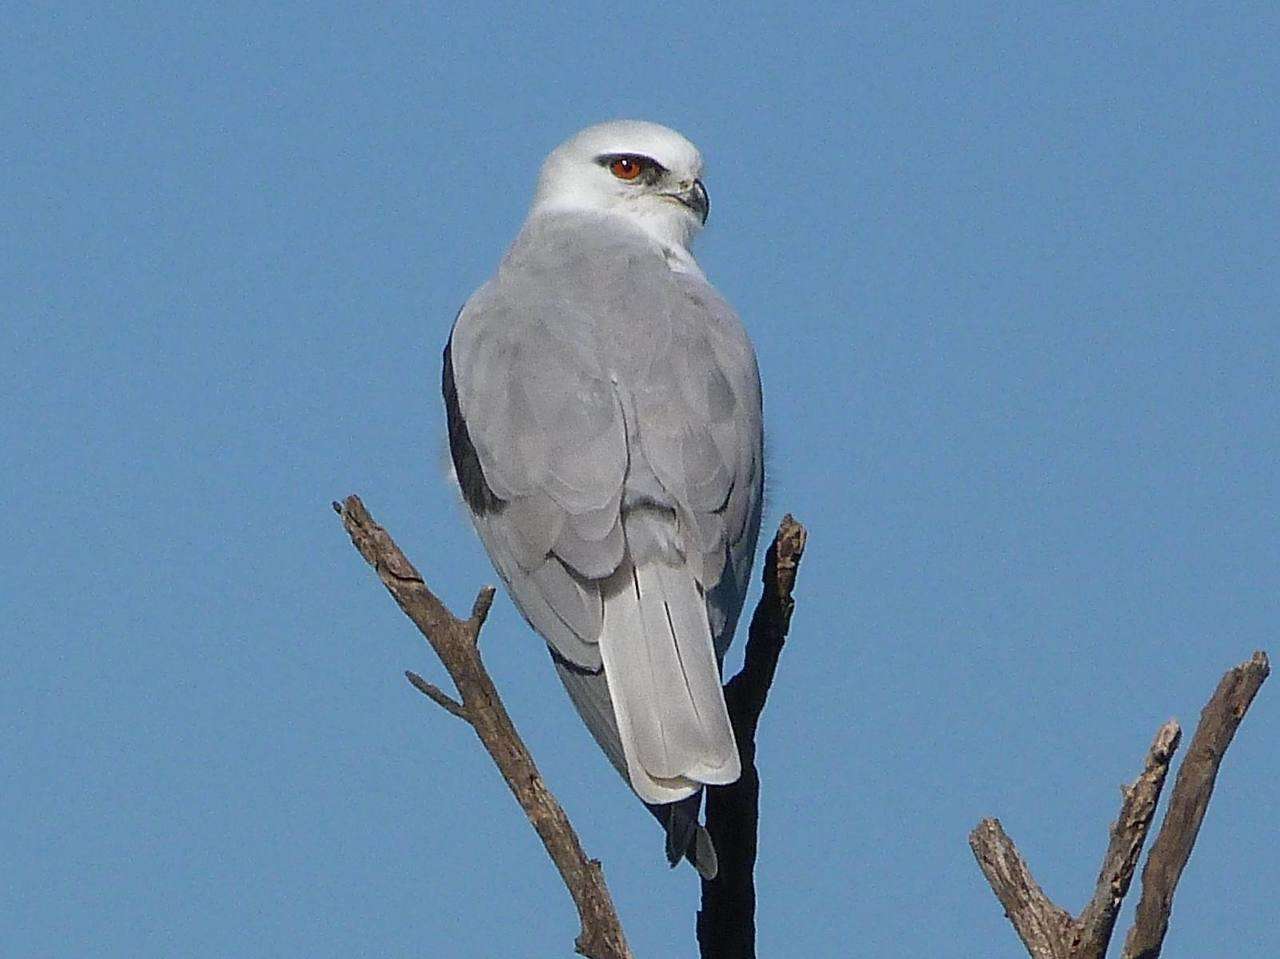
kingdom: Animalia
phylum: Chordata
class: Aves
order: Accipitriformes
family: Accipitridae
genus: Elanus
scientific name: Elanus axillaris
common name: Black-shouldered kite
